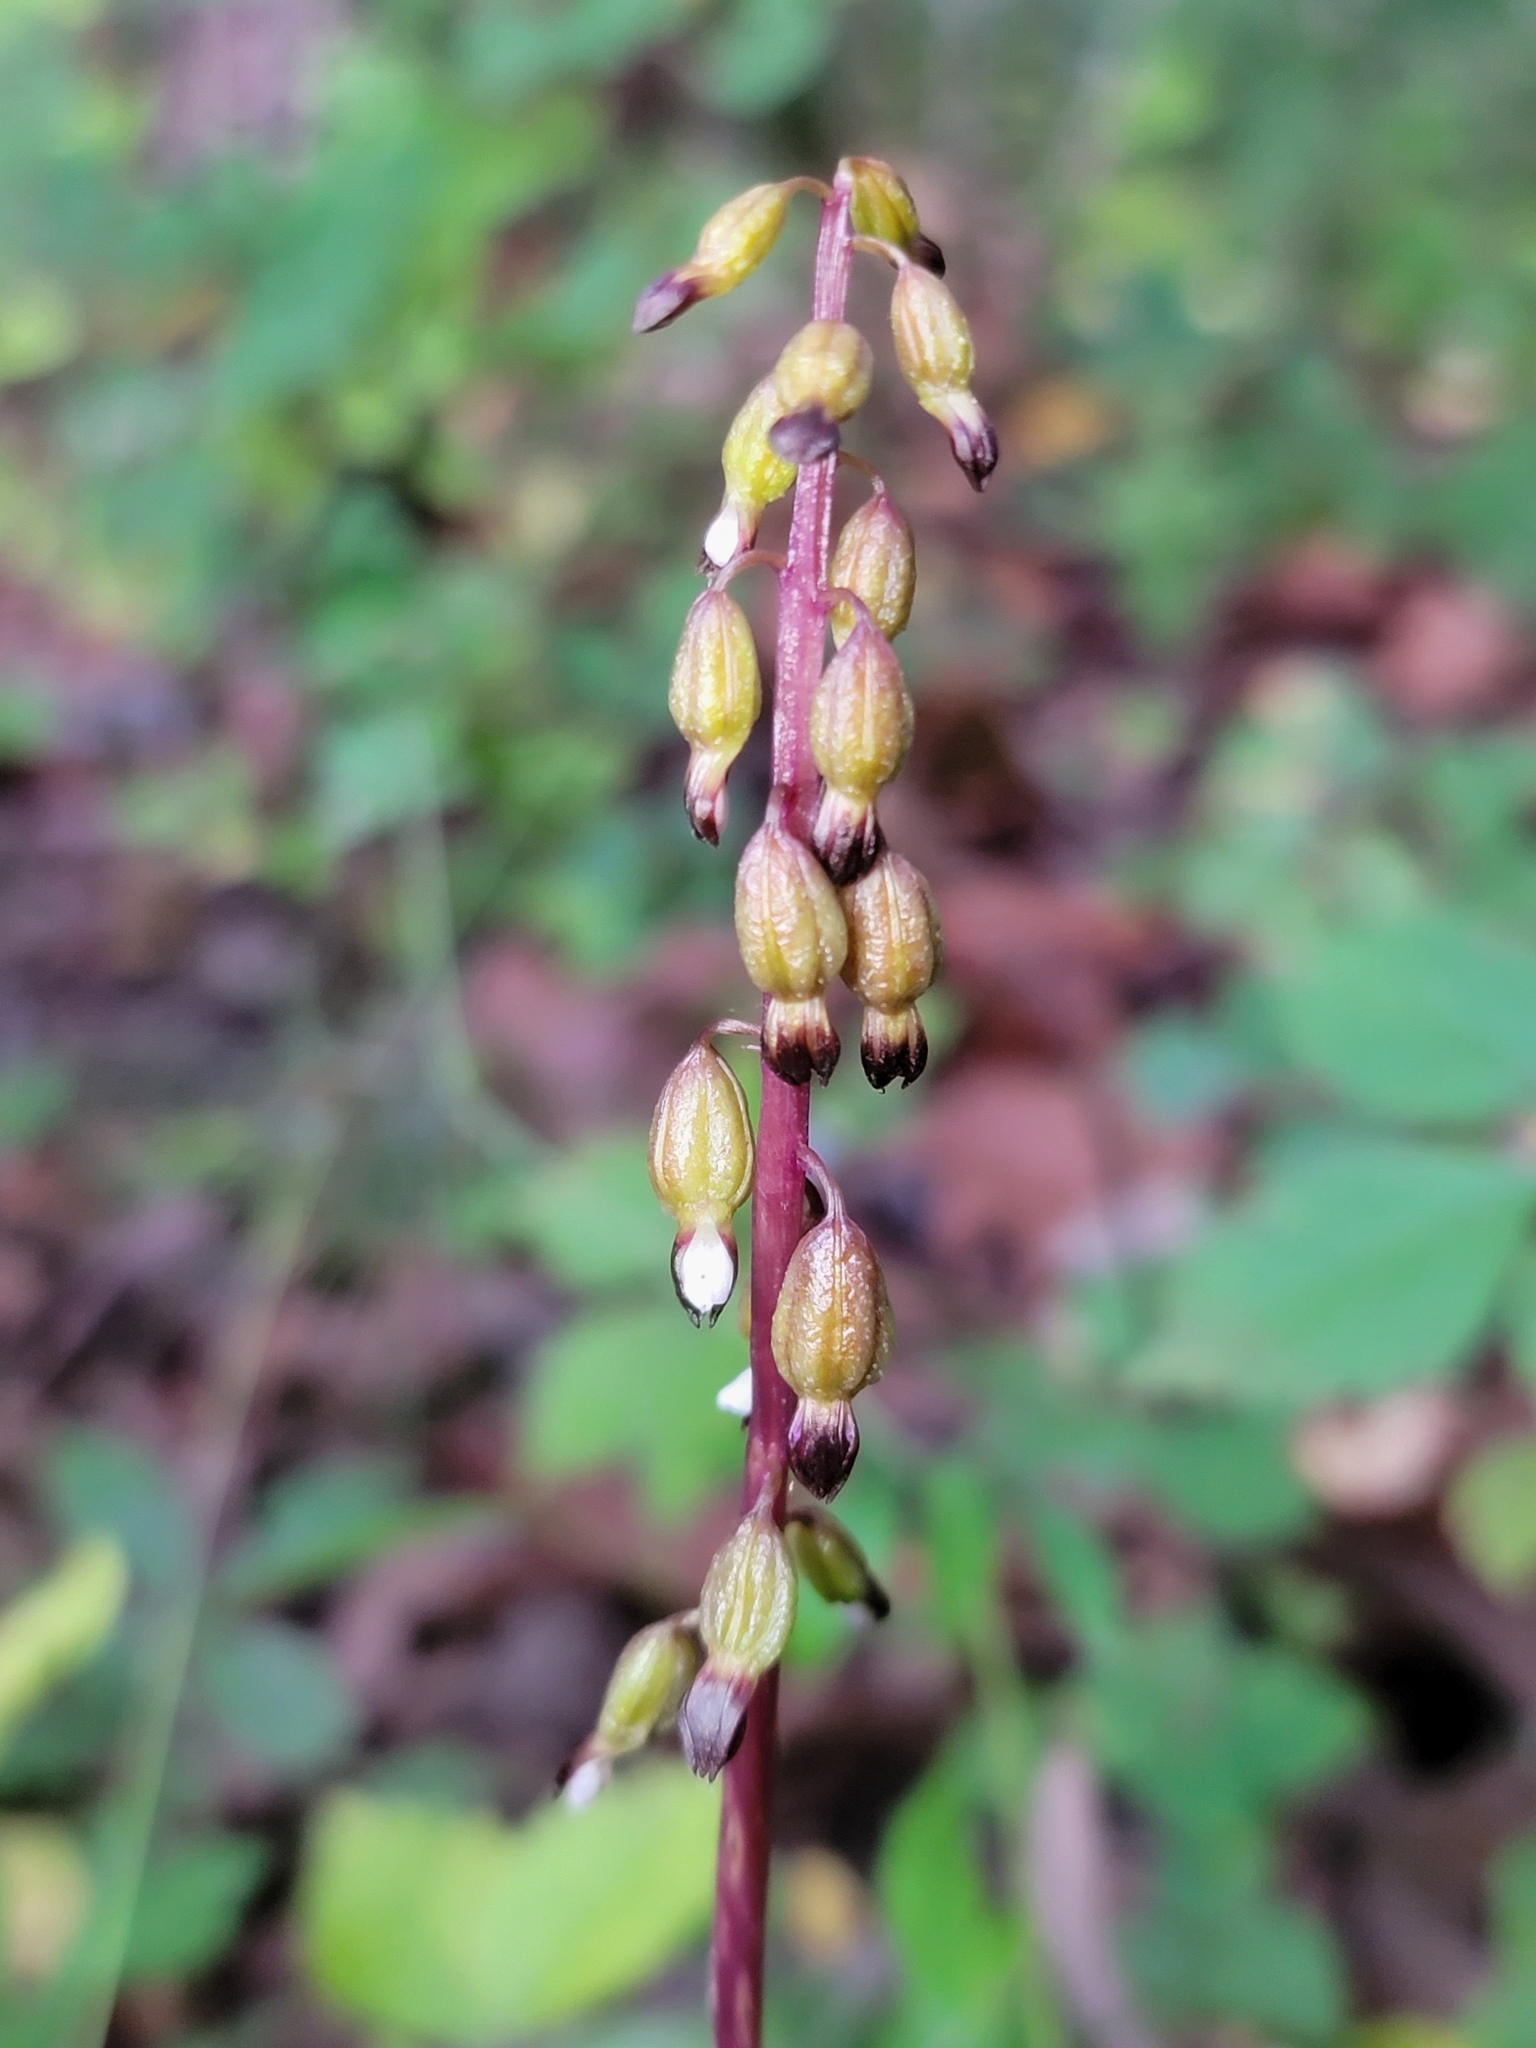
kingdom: Plantae
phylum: Tracheophyta
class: Liliopsida
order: Asparagales
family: Orchidaceae
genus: Corallorhiza
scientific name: Corallorhiza odontorhiza
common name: Autumn coralroot
